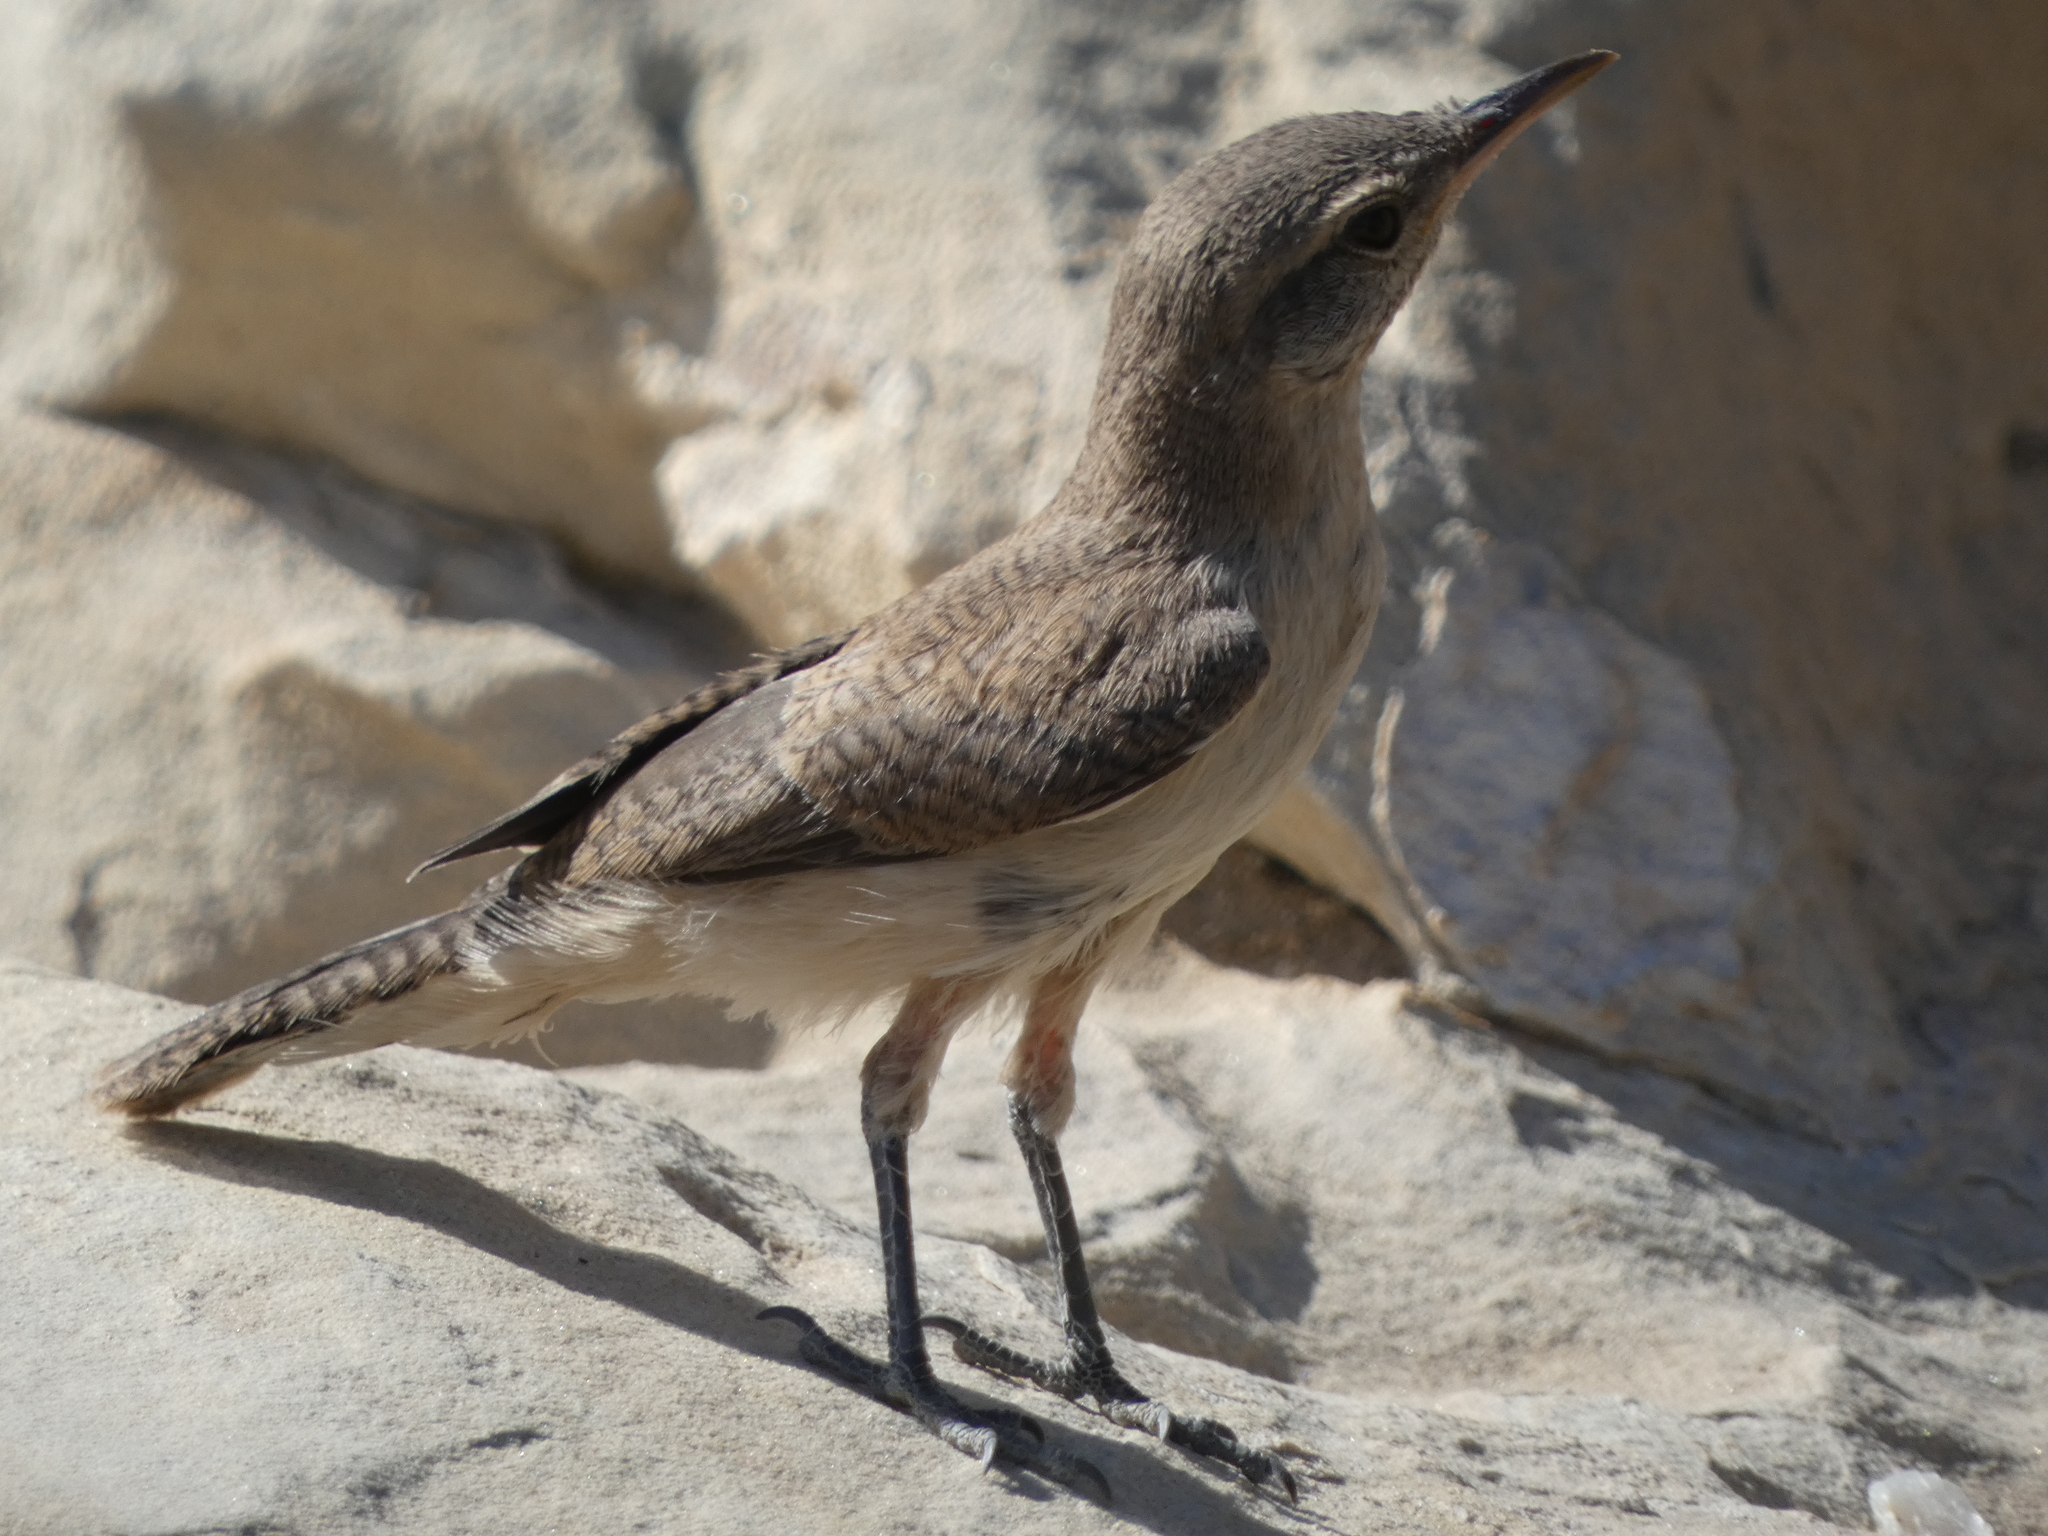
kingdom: Animalia
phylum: Chordata
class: Aves
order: Passeriformes
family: Troglodytidae
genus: Salpinctes
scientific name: Salpinctes obsoletus
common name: Rock wren
